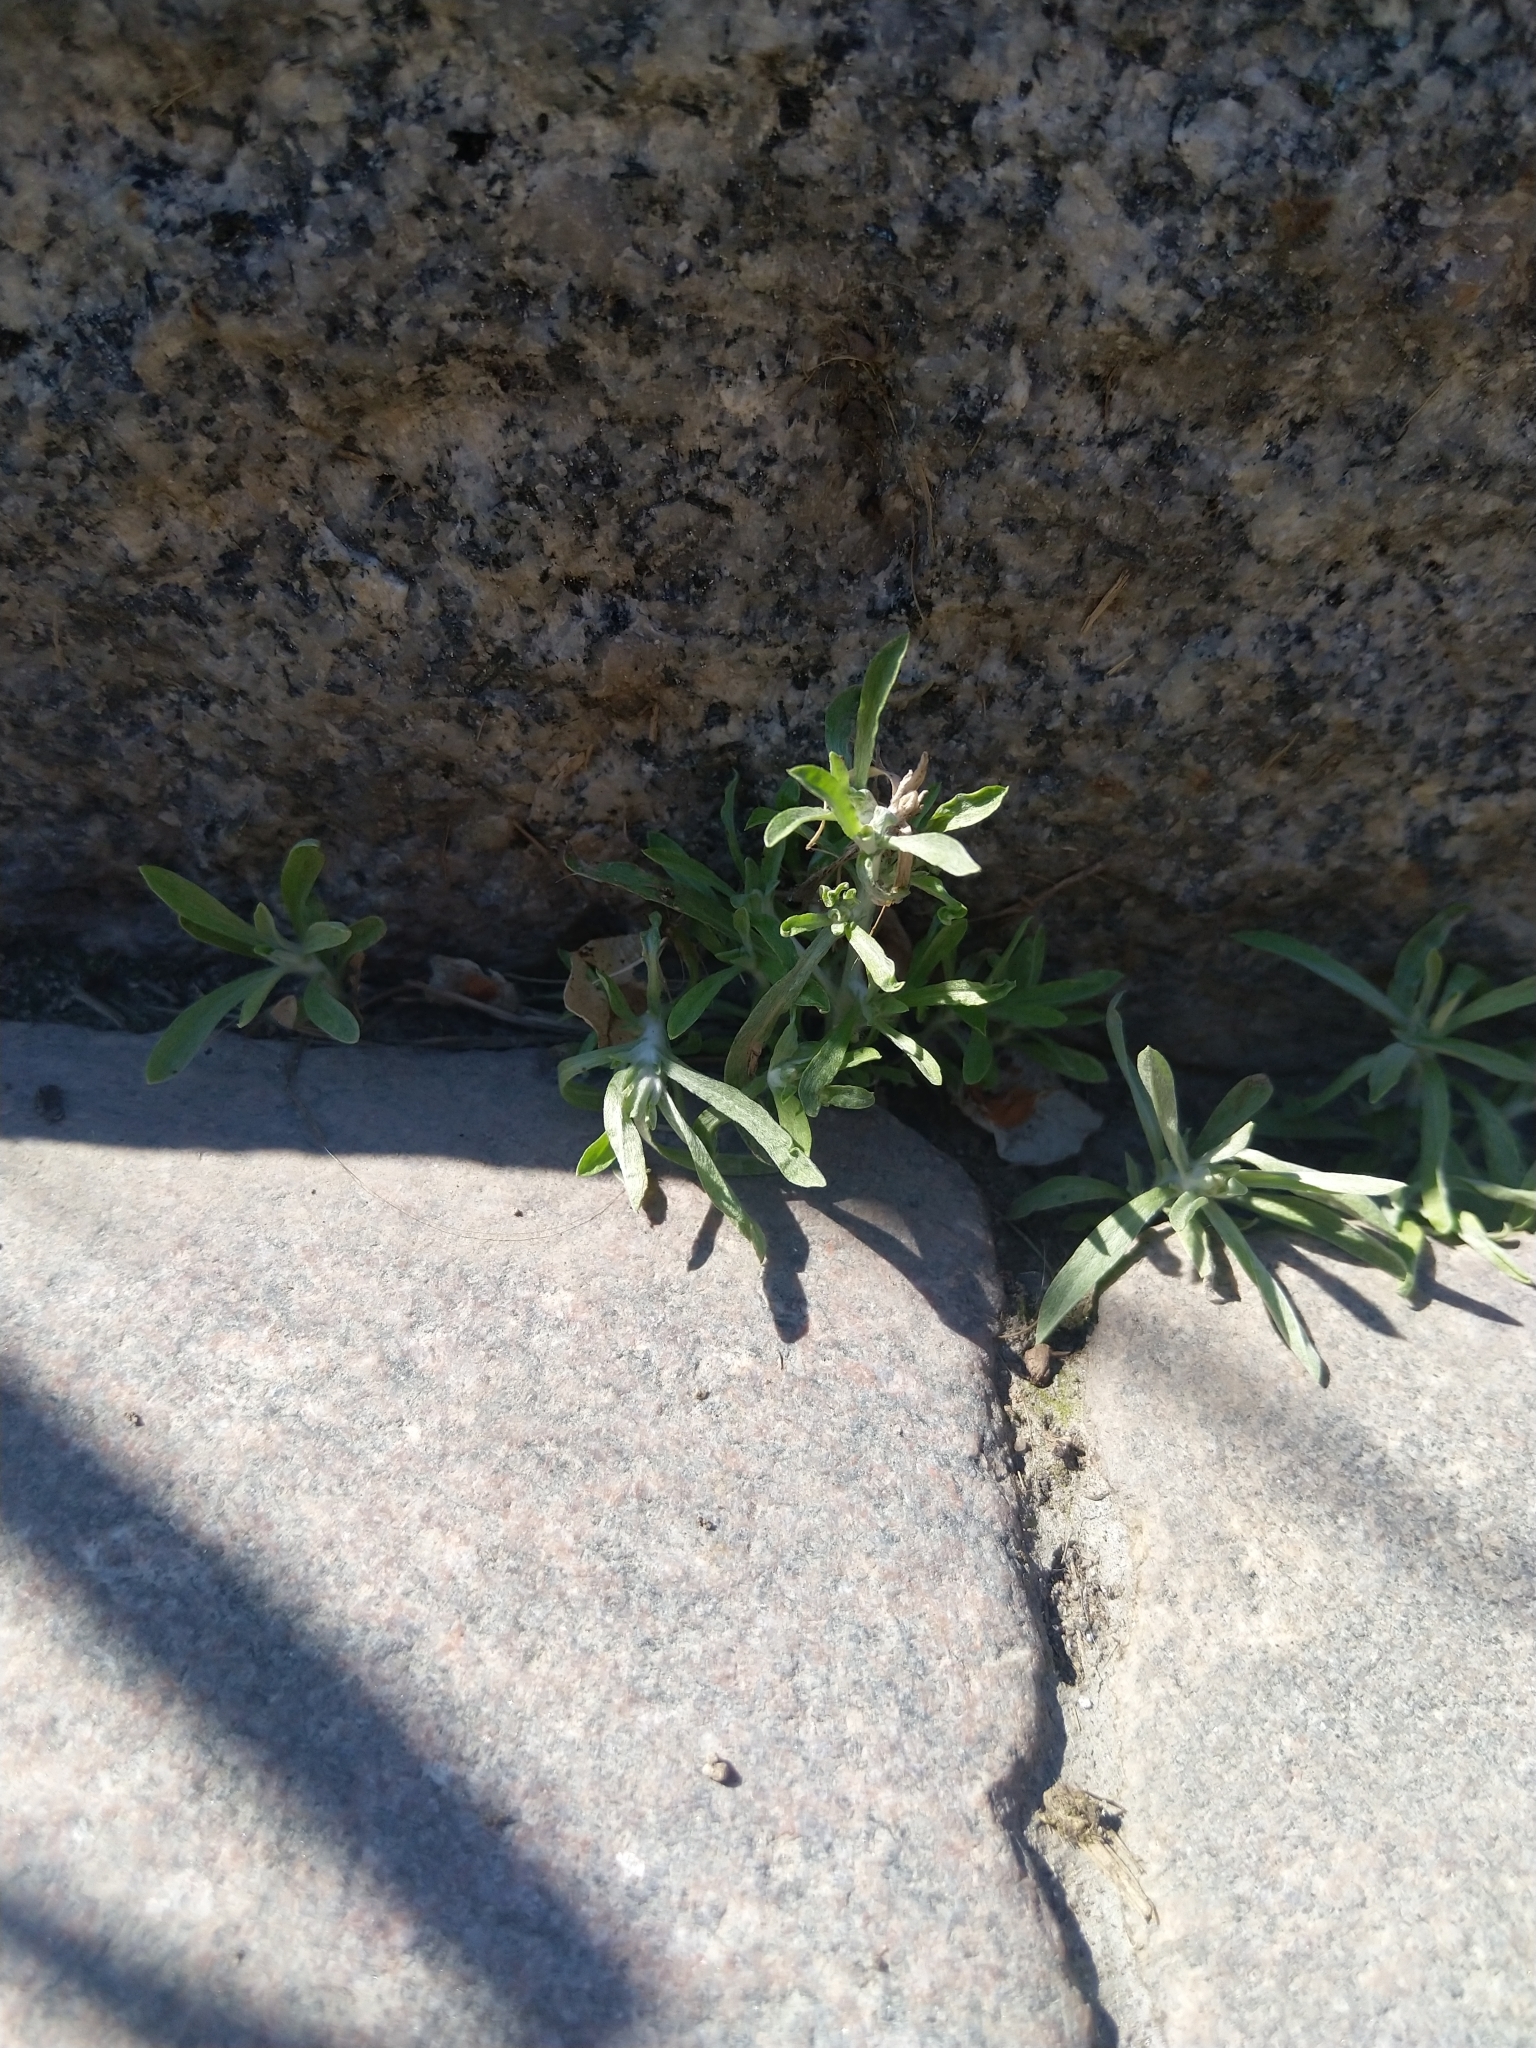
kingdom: Plantae
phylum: Tracheophyta
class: Magnoliopsida
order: Asterales
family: Asteraceae
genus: Gnaphalium
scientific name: Gnaphalium uliginosum
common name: Marsh cudweed
